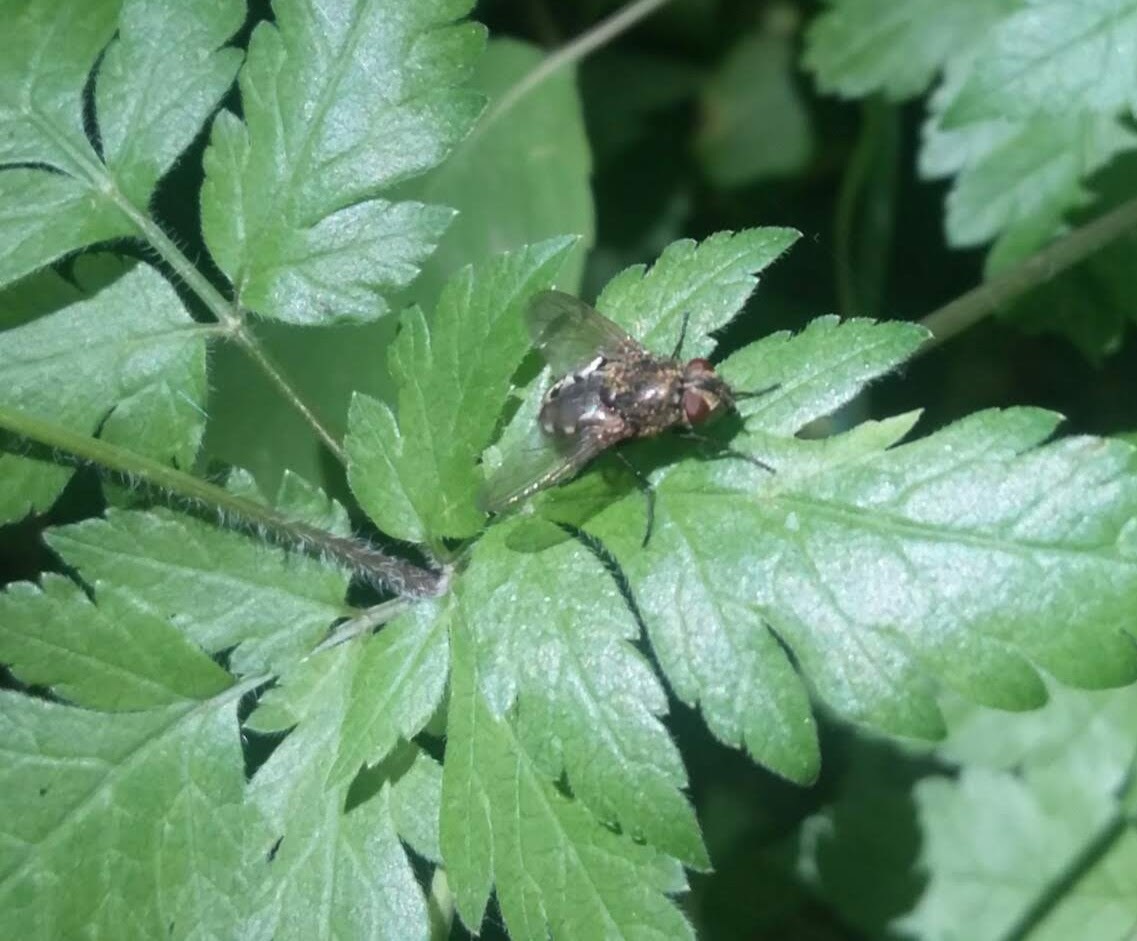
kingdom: Animalia
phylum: Arthropoda
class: Insecta
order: Diptera
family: Polleniidae
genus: Pollenia
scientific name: Pollenia
